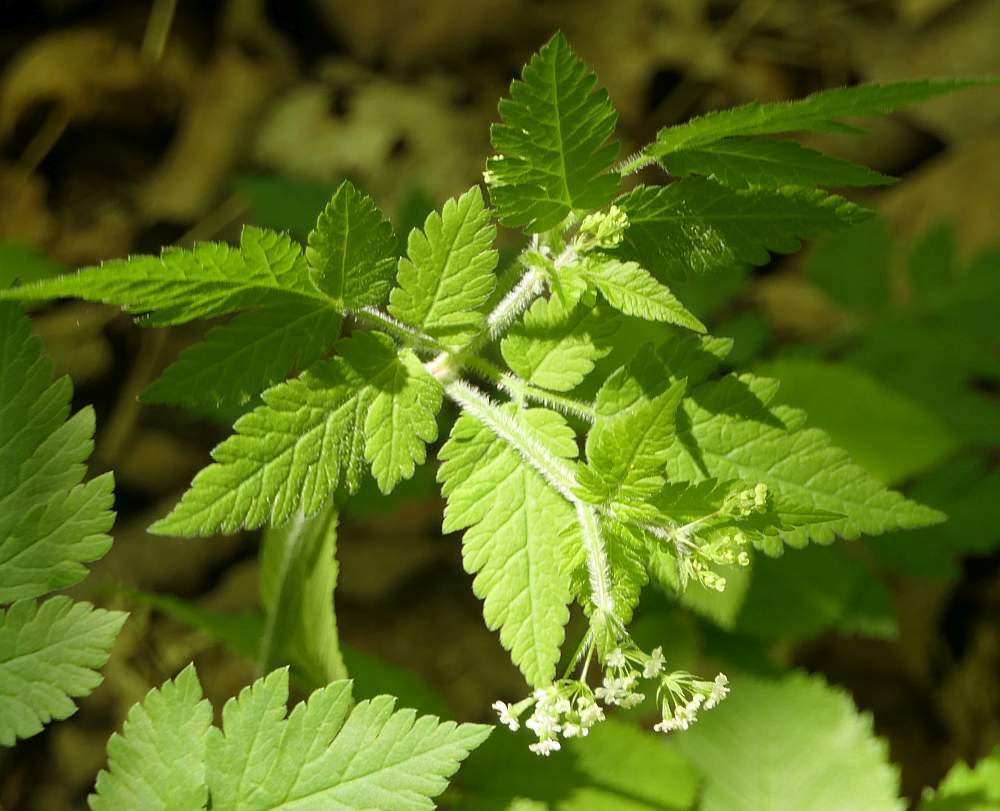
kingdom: Plantae
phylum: Tracheophyta
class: Magnoliopsida
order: Apiales
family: Apiaceae
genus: Osmorhiza
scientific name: Osmorhiza claytonii
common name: Hairy sweet cicely
